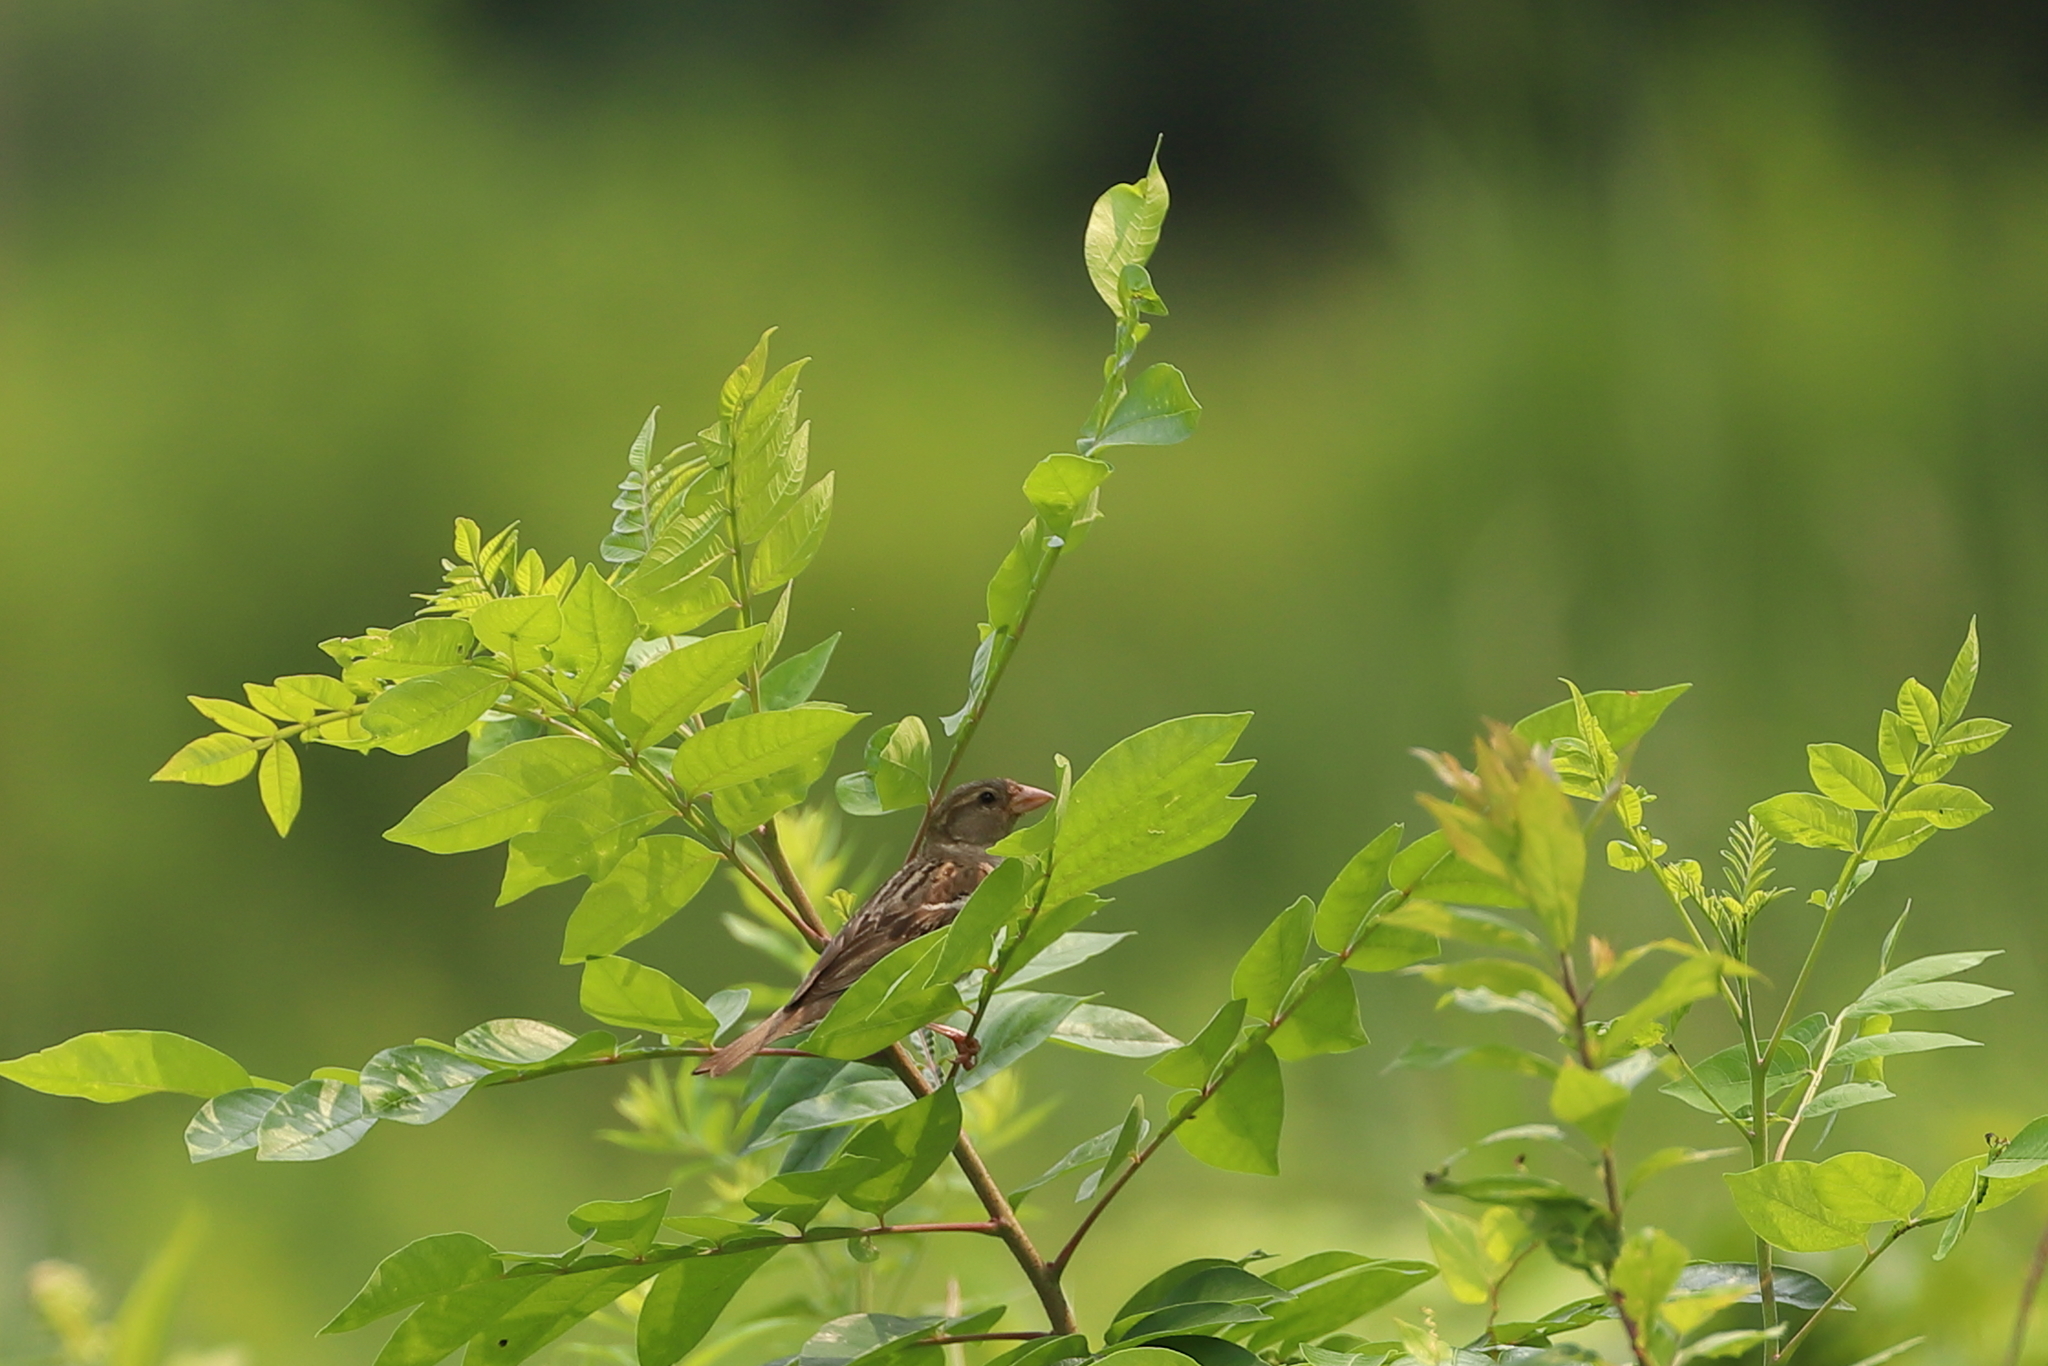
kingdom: Animalia
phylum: Chordata
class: Aves
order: Passeriformes
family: Passeridae
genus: Passer
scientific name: Passer domesticus
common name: House sparrow
